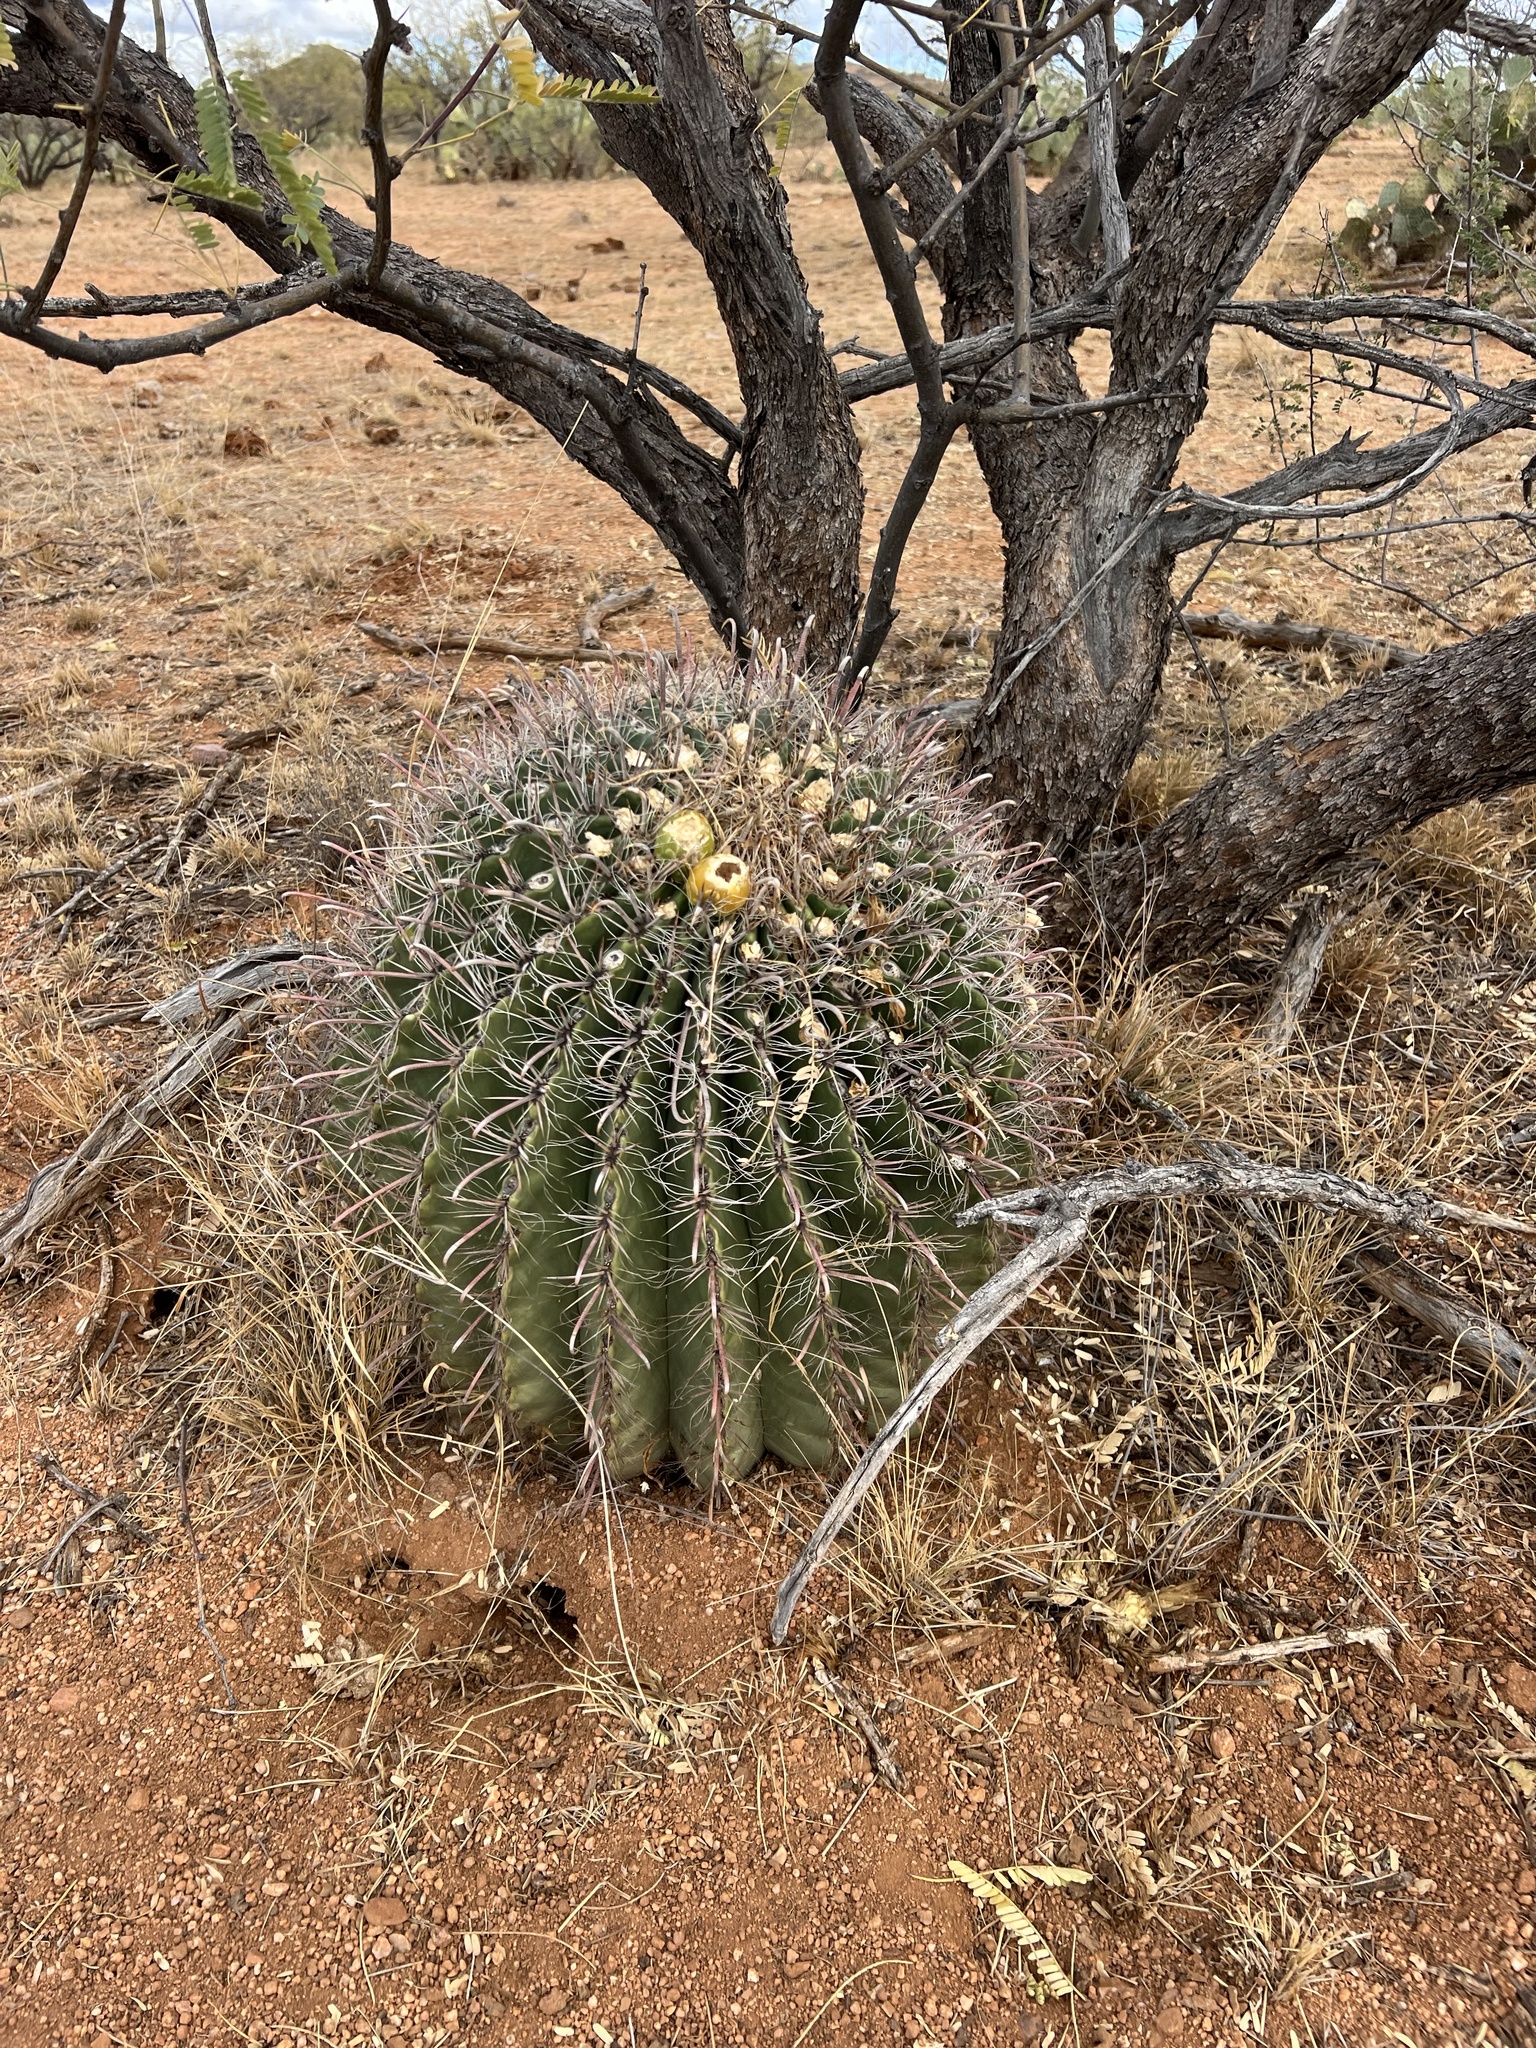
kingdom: Plantae
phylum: Tracheophyta
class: Magnoliopsida
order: Caryophyllales
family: Cactaceae
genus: Ferocactus
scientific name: Ferocactus wislizeni
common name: Candy barrel cactus
